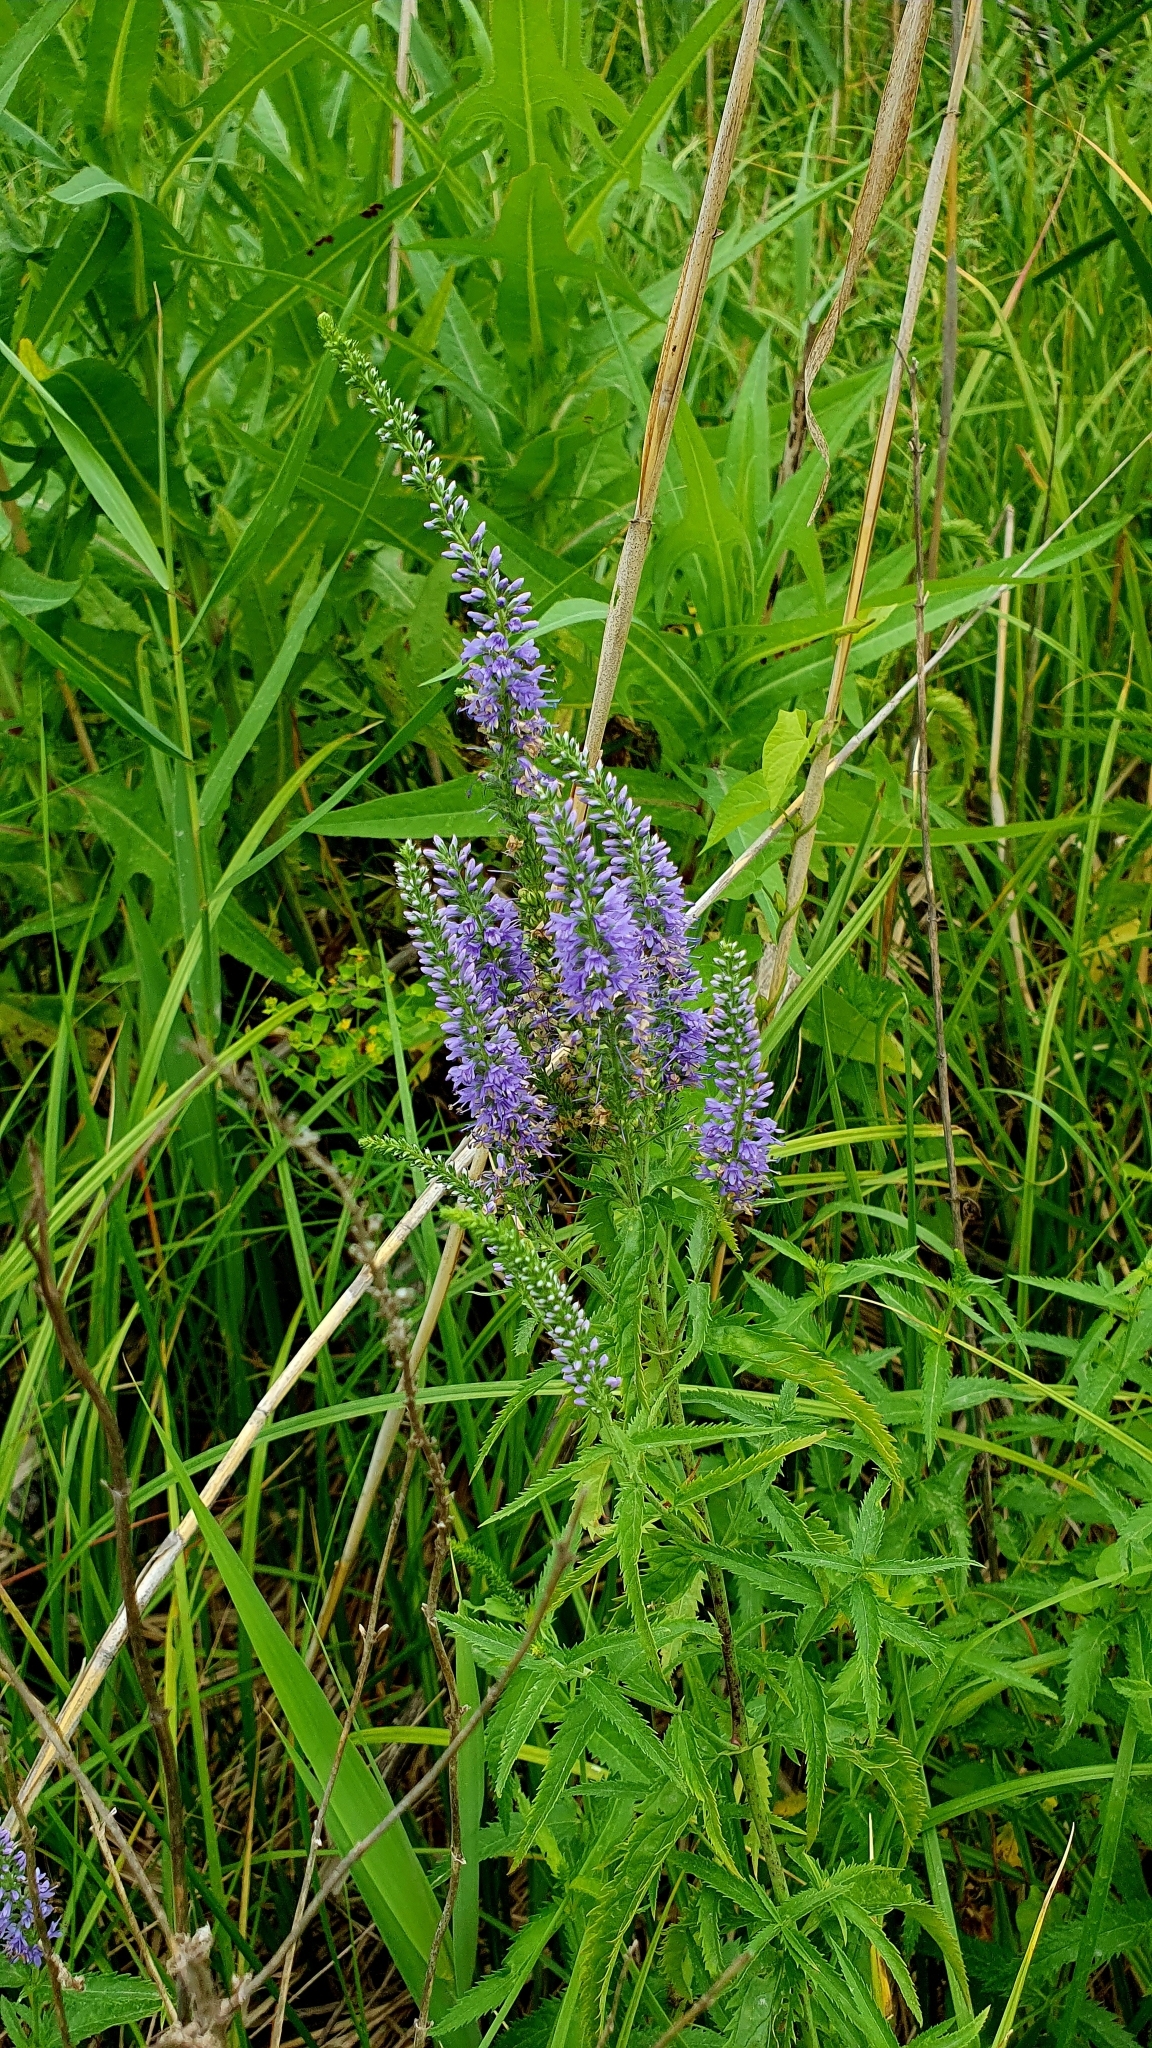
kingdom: Plantae
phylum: Tracheophyta
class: Magnoliopsida
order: Lamiales
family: Plantaginaceae
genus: Veronica
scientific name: Veronica longifolia
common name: Garden speedwell
